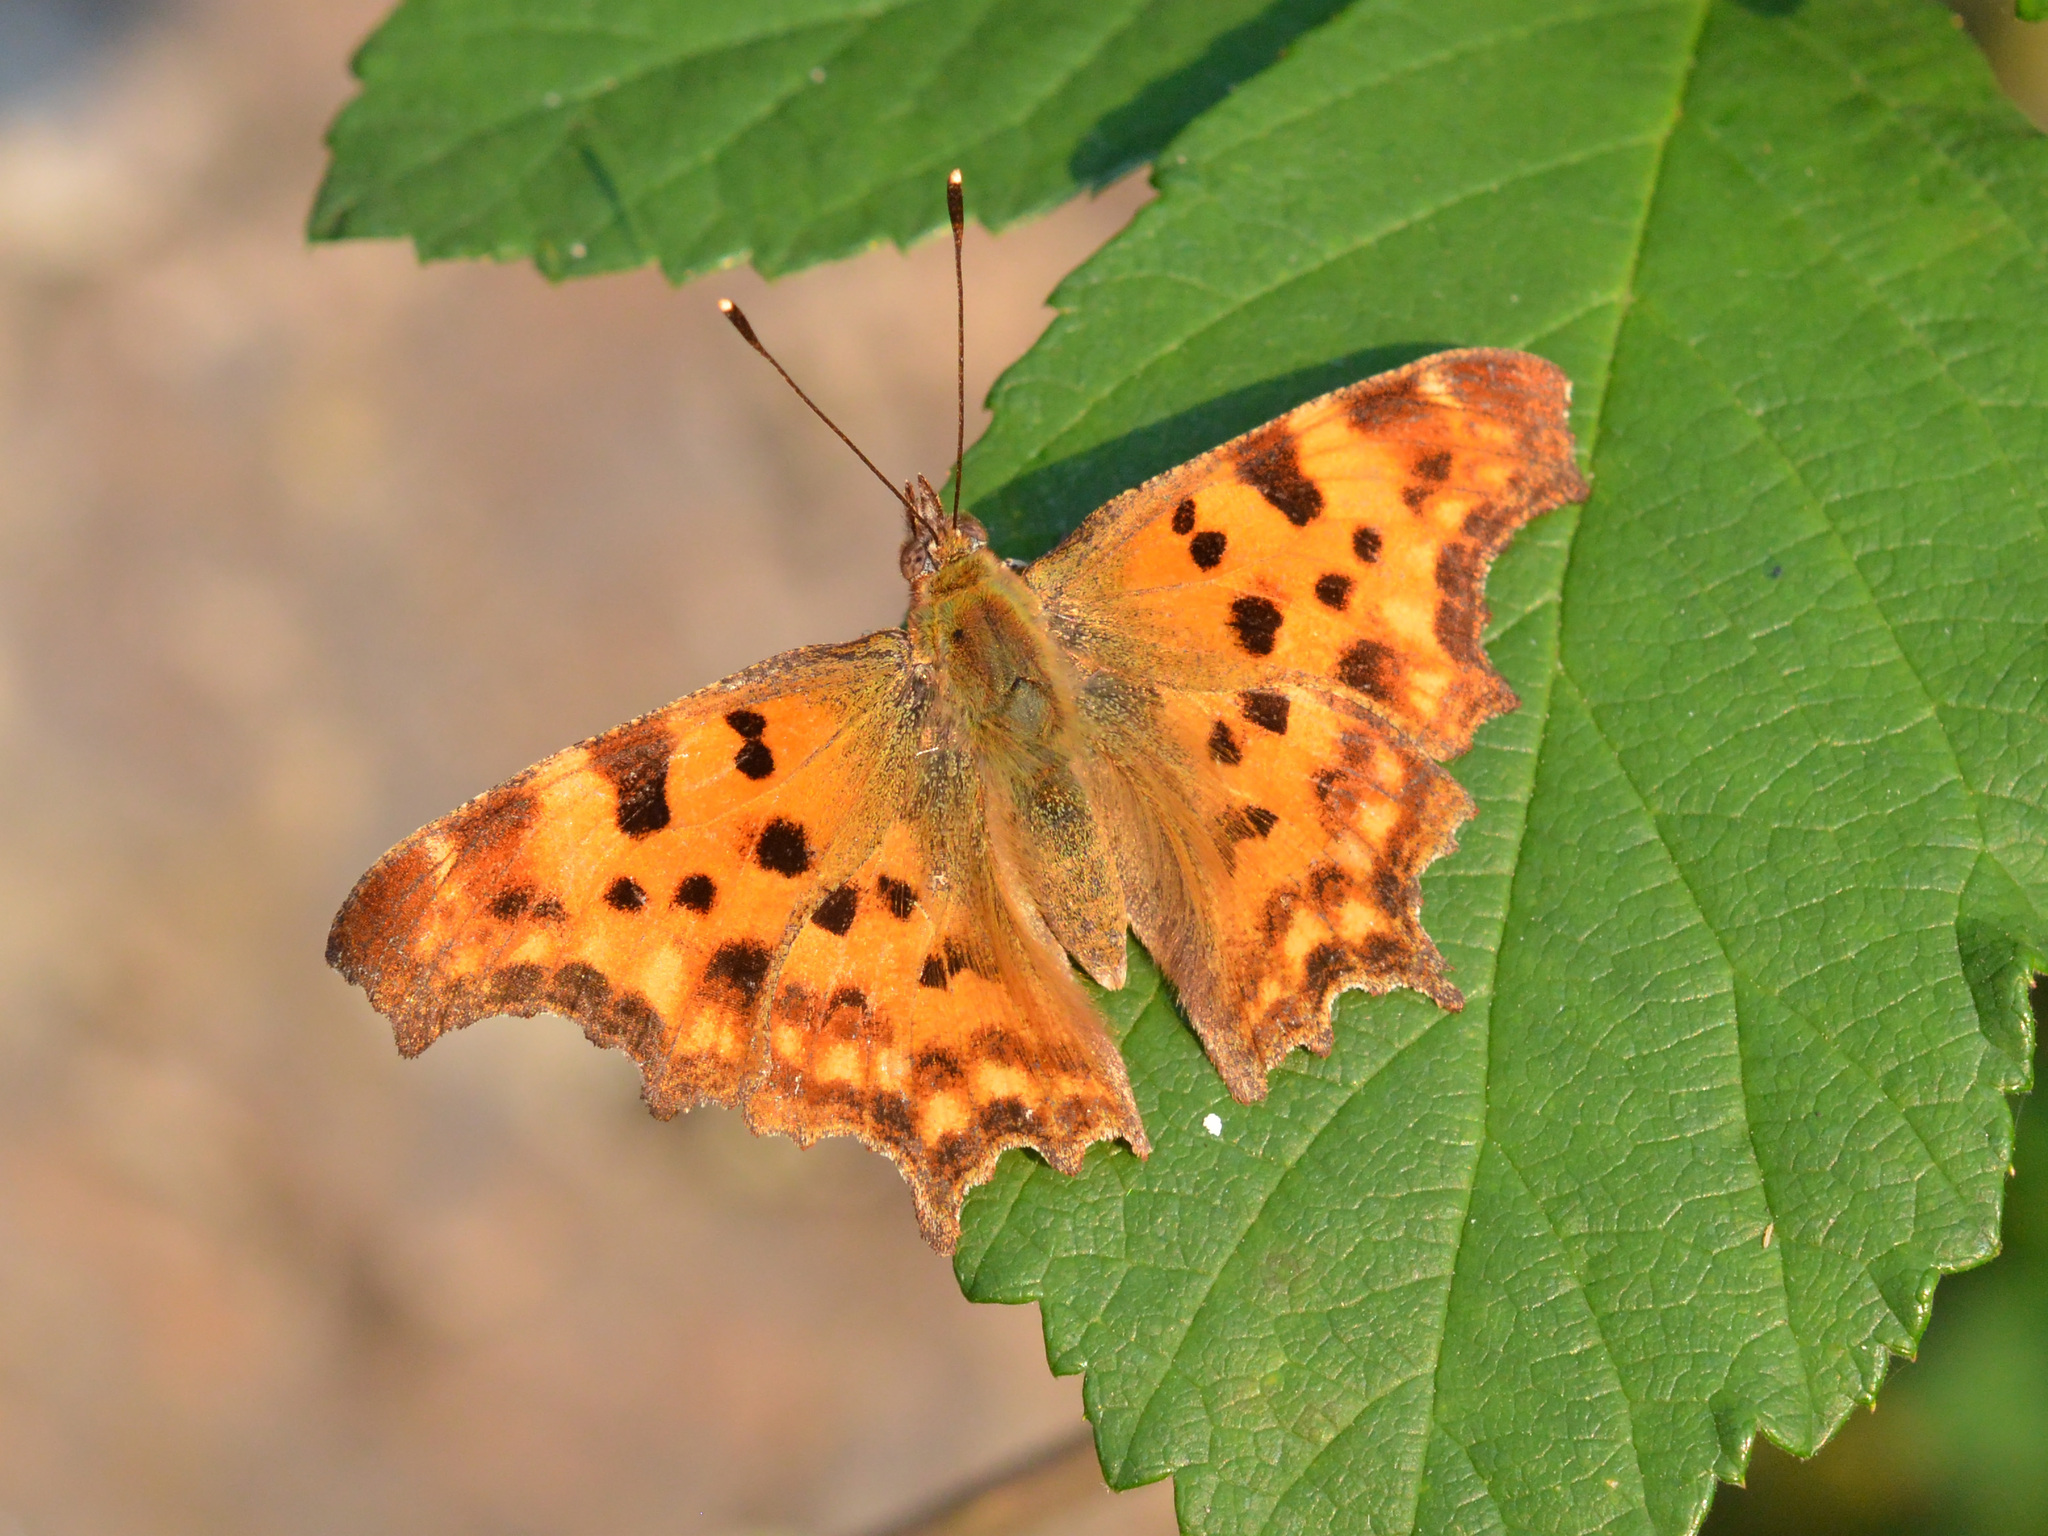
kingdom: Animalia
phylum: Arthropoda
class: Insecta
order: Lepidoptera
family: Nymphalidae
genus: Polygonia
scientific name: Polygonia c-album
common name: Comma
